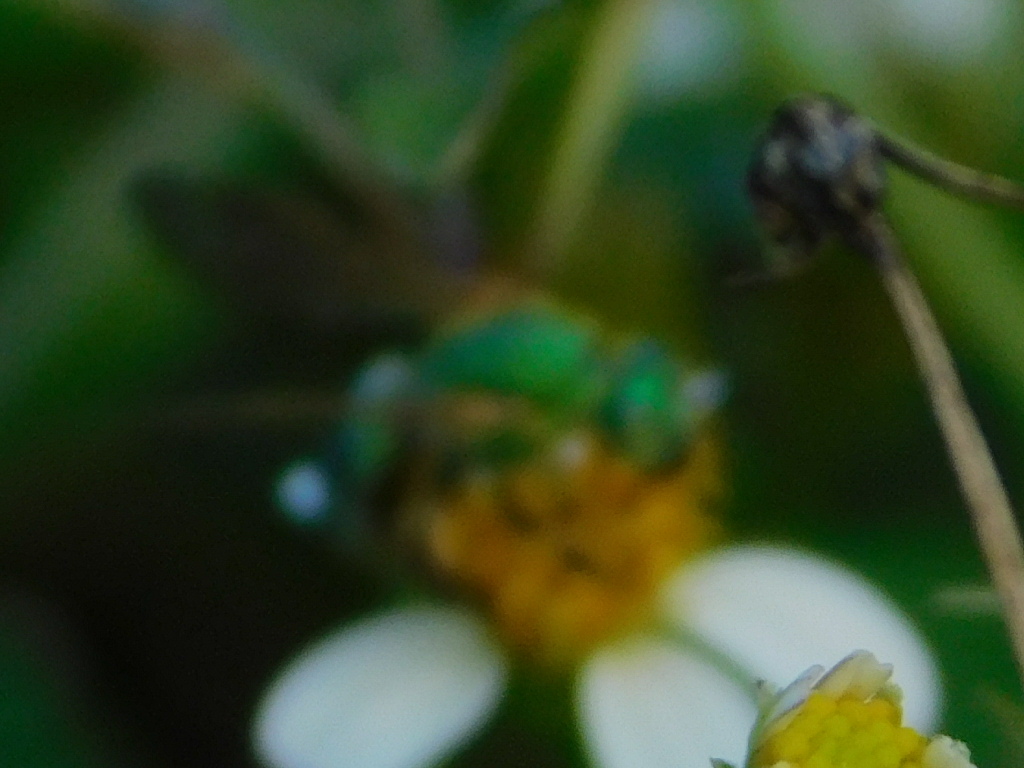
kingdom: Animalia
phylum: Arthropoda
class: Insecta
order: Hymenoptera
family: Halictidae
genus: Agapostemon
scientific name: Agapostemon splendens
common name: Brown-winged striped sweat bee
